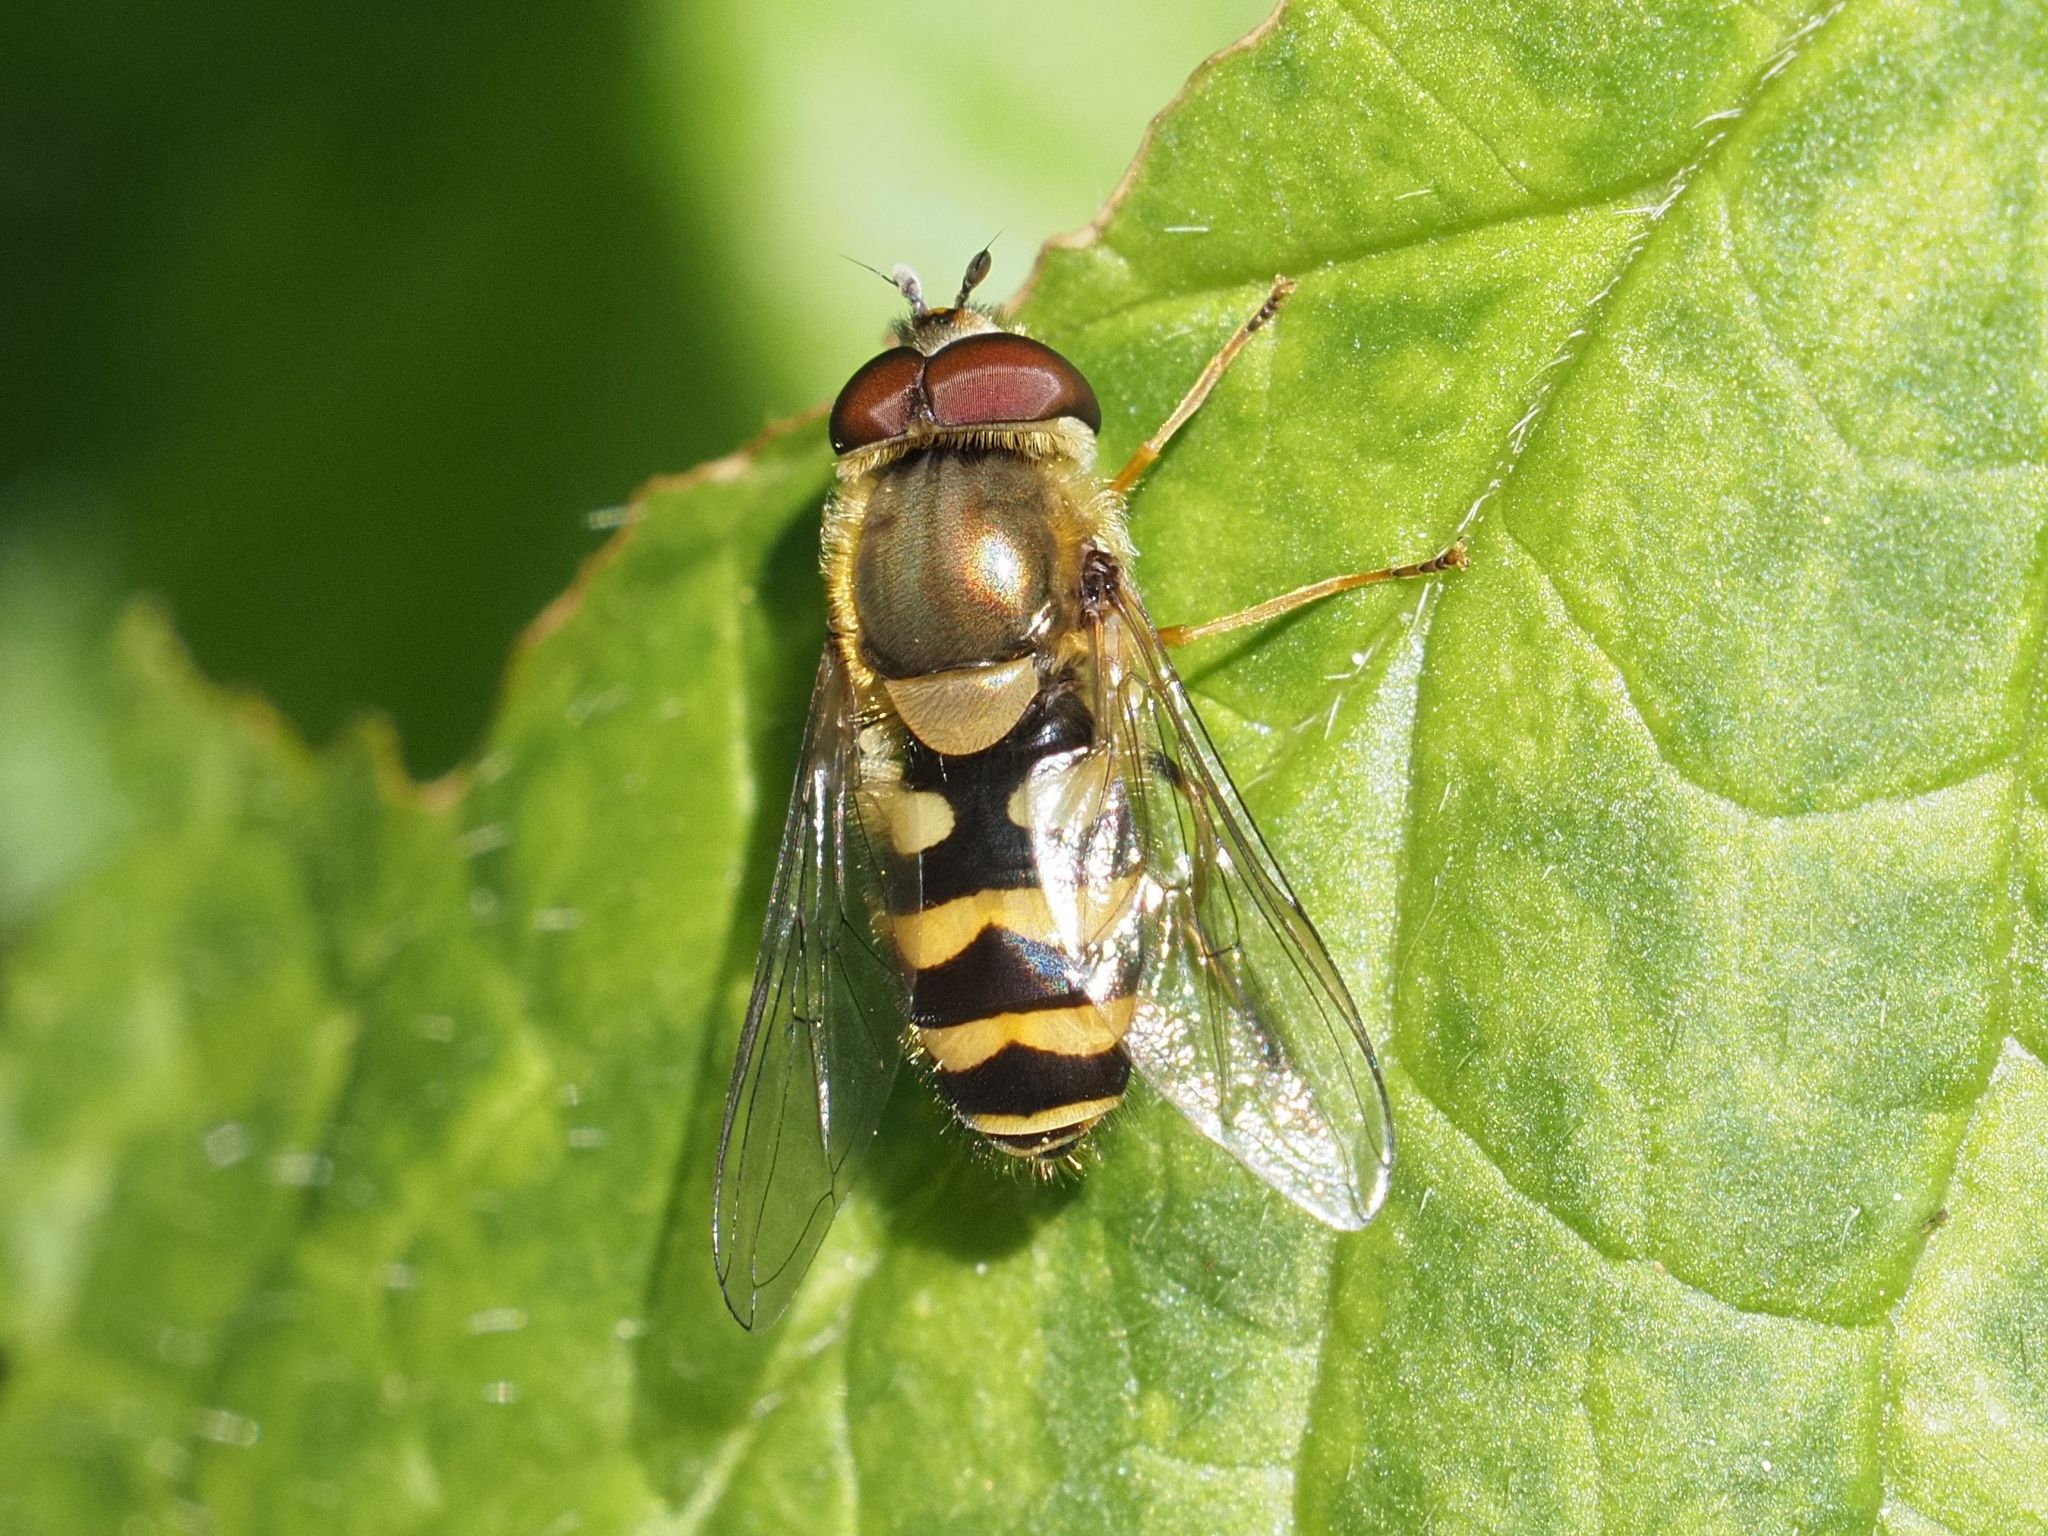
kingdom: Animalia
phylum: Arthropoda
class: Insecta
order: Diptera
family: Syrphidae
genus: Syrphus
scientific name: Syrphus
